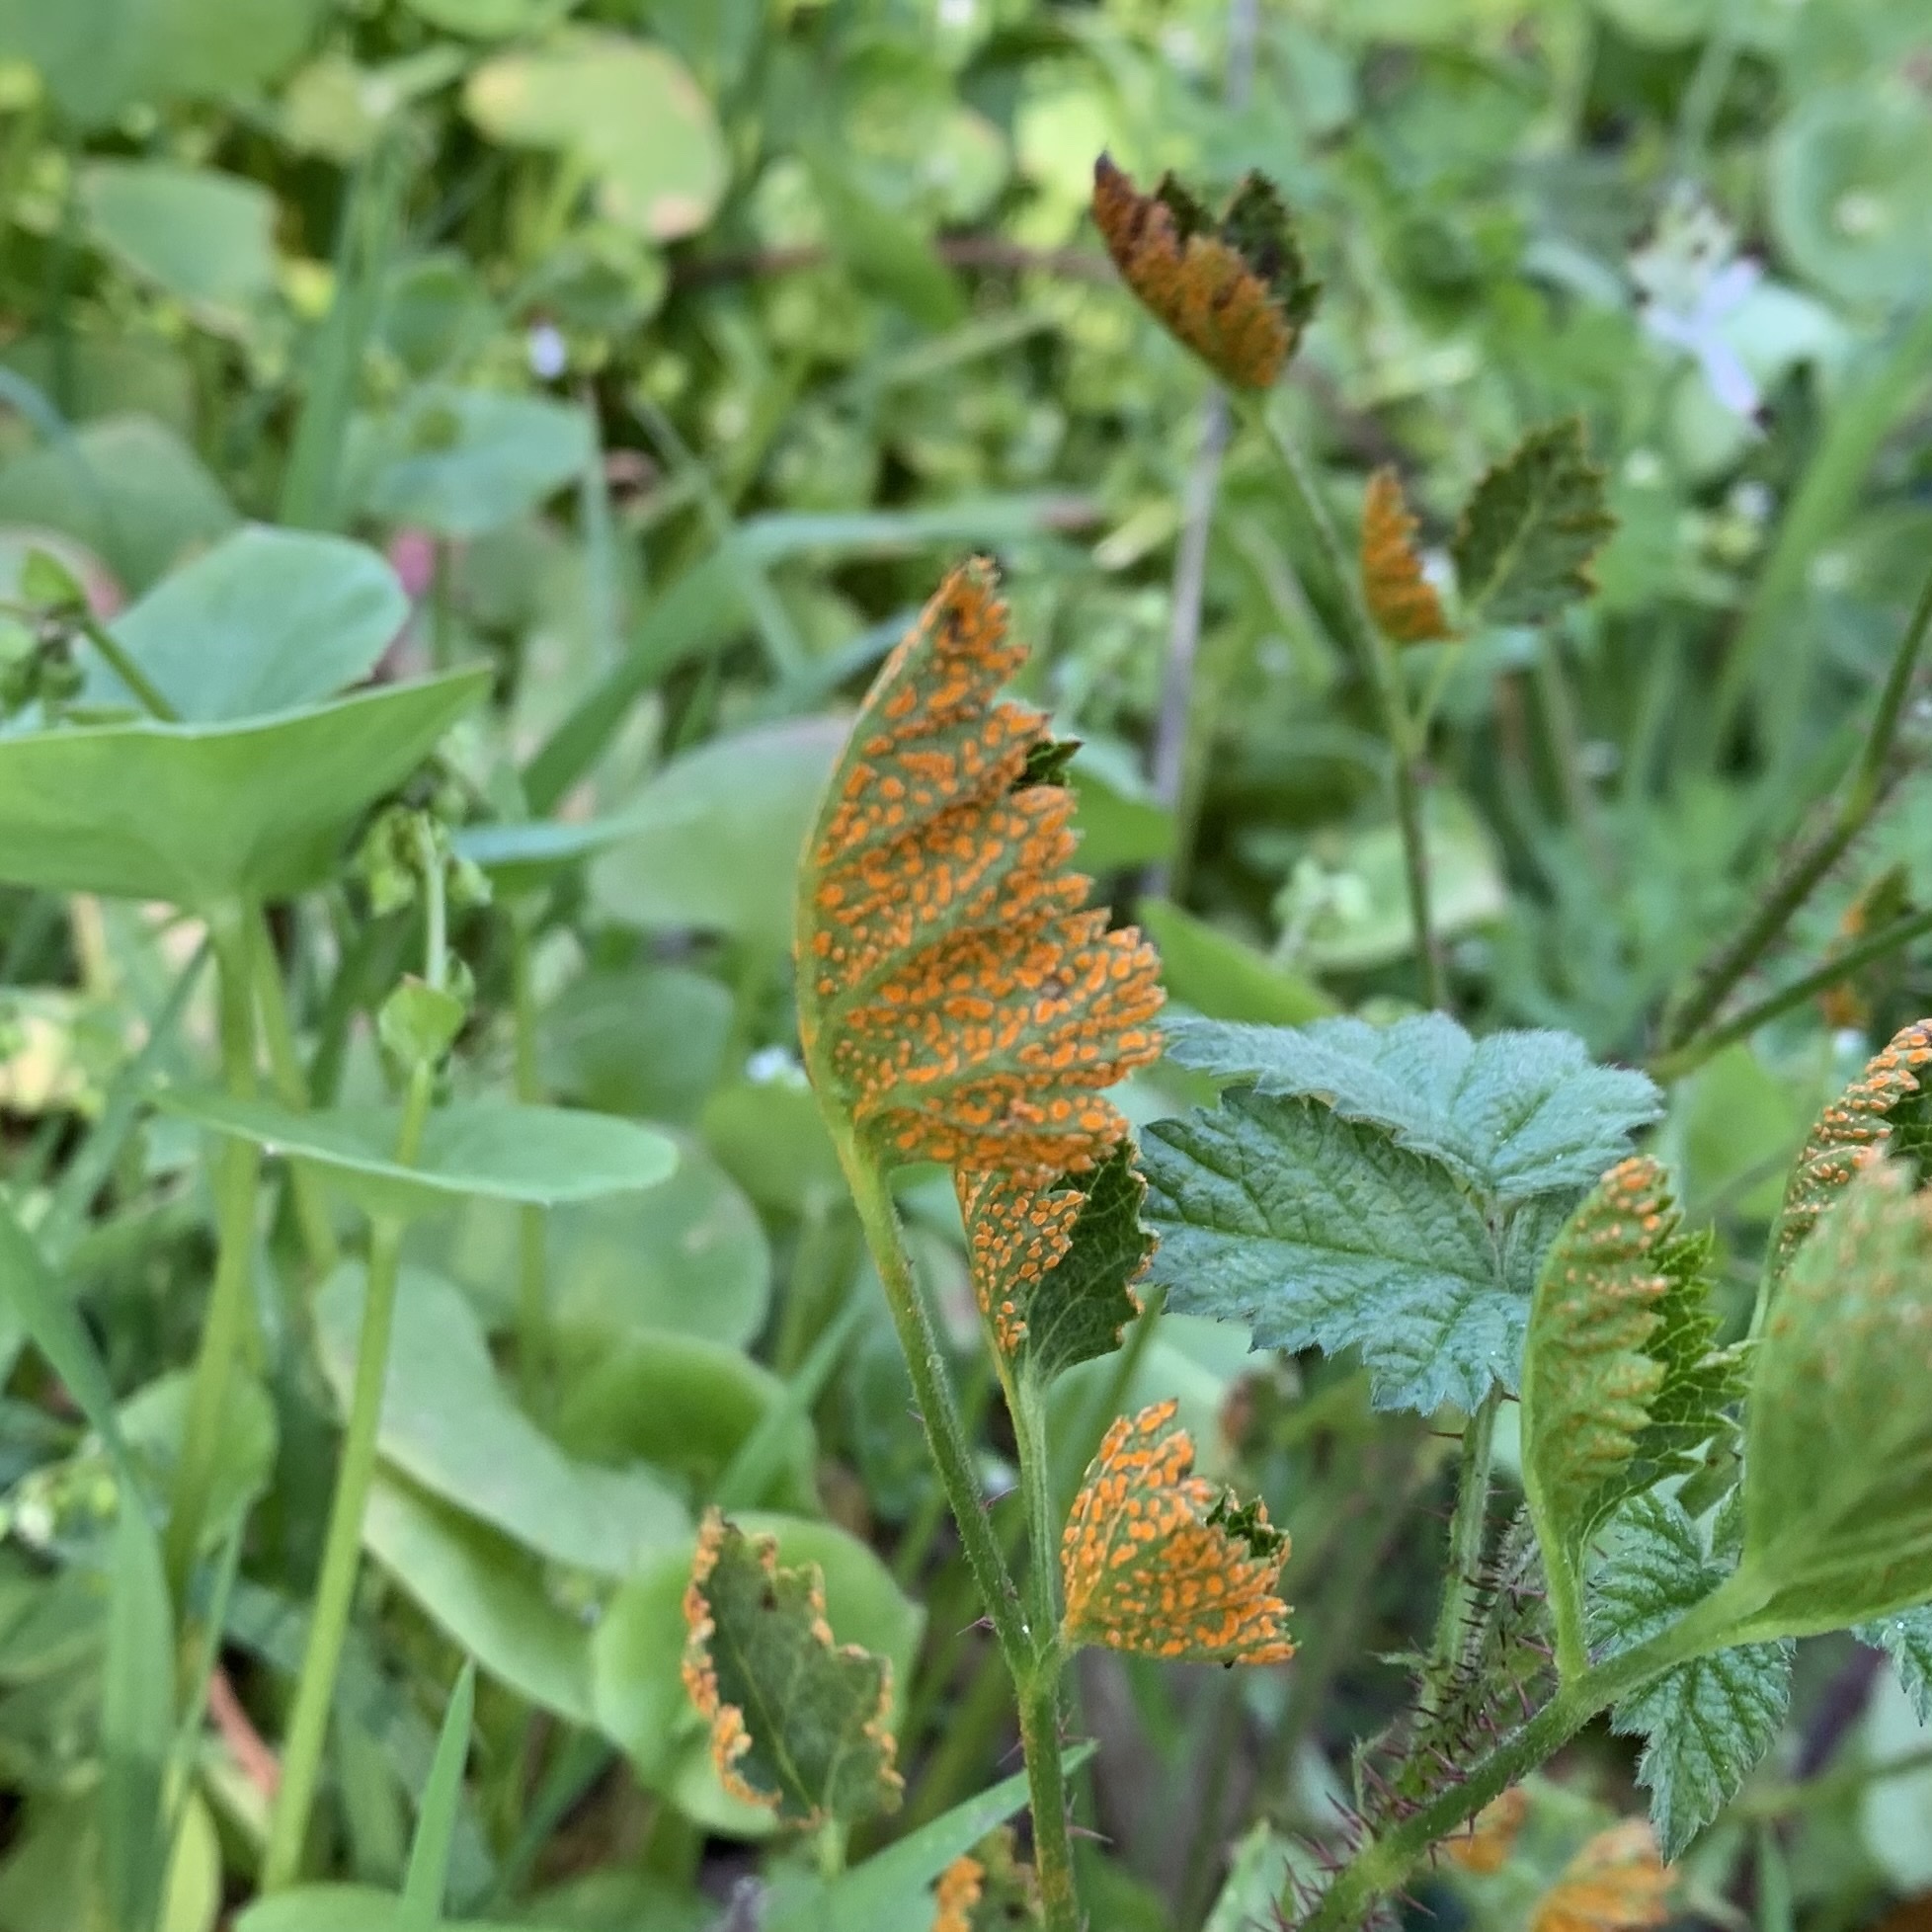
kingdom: Fungi
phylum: Basidiomycota
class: Pucciniomycetes
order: Pucciniales
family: Phragmidiaceae
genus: Arthuriomyces
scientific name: Arthuriomyces peckianus
